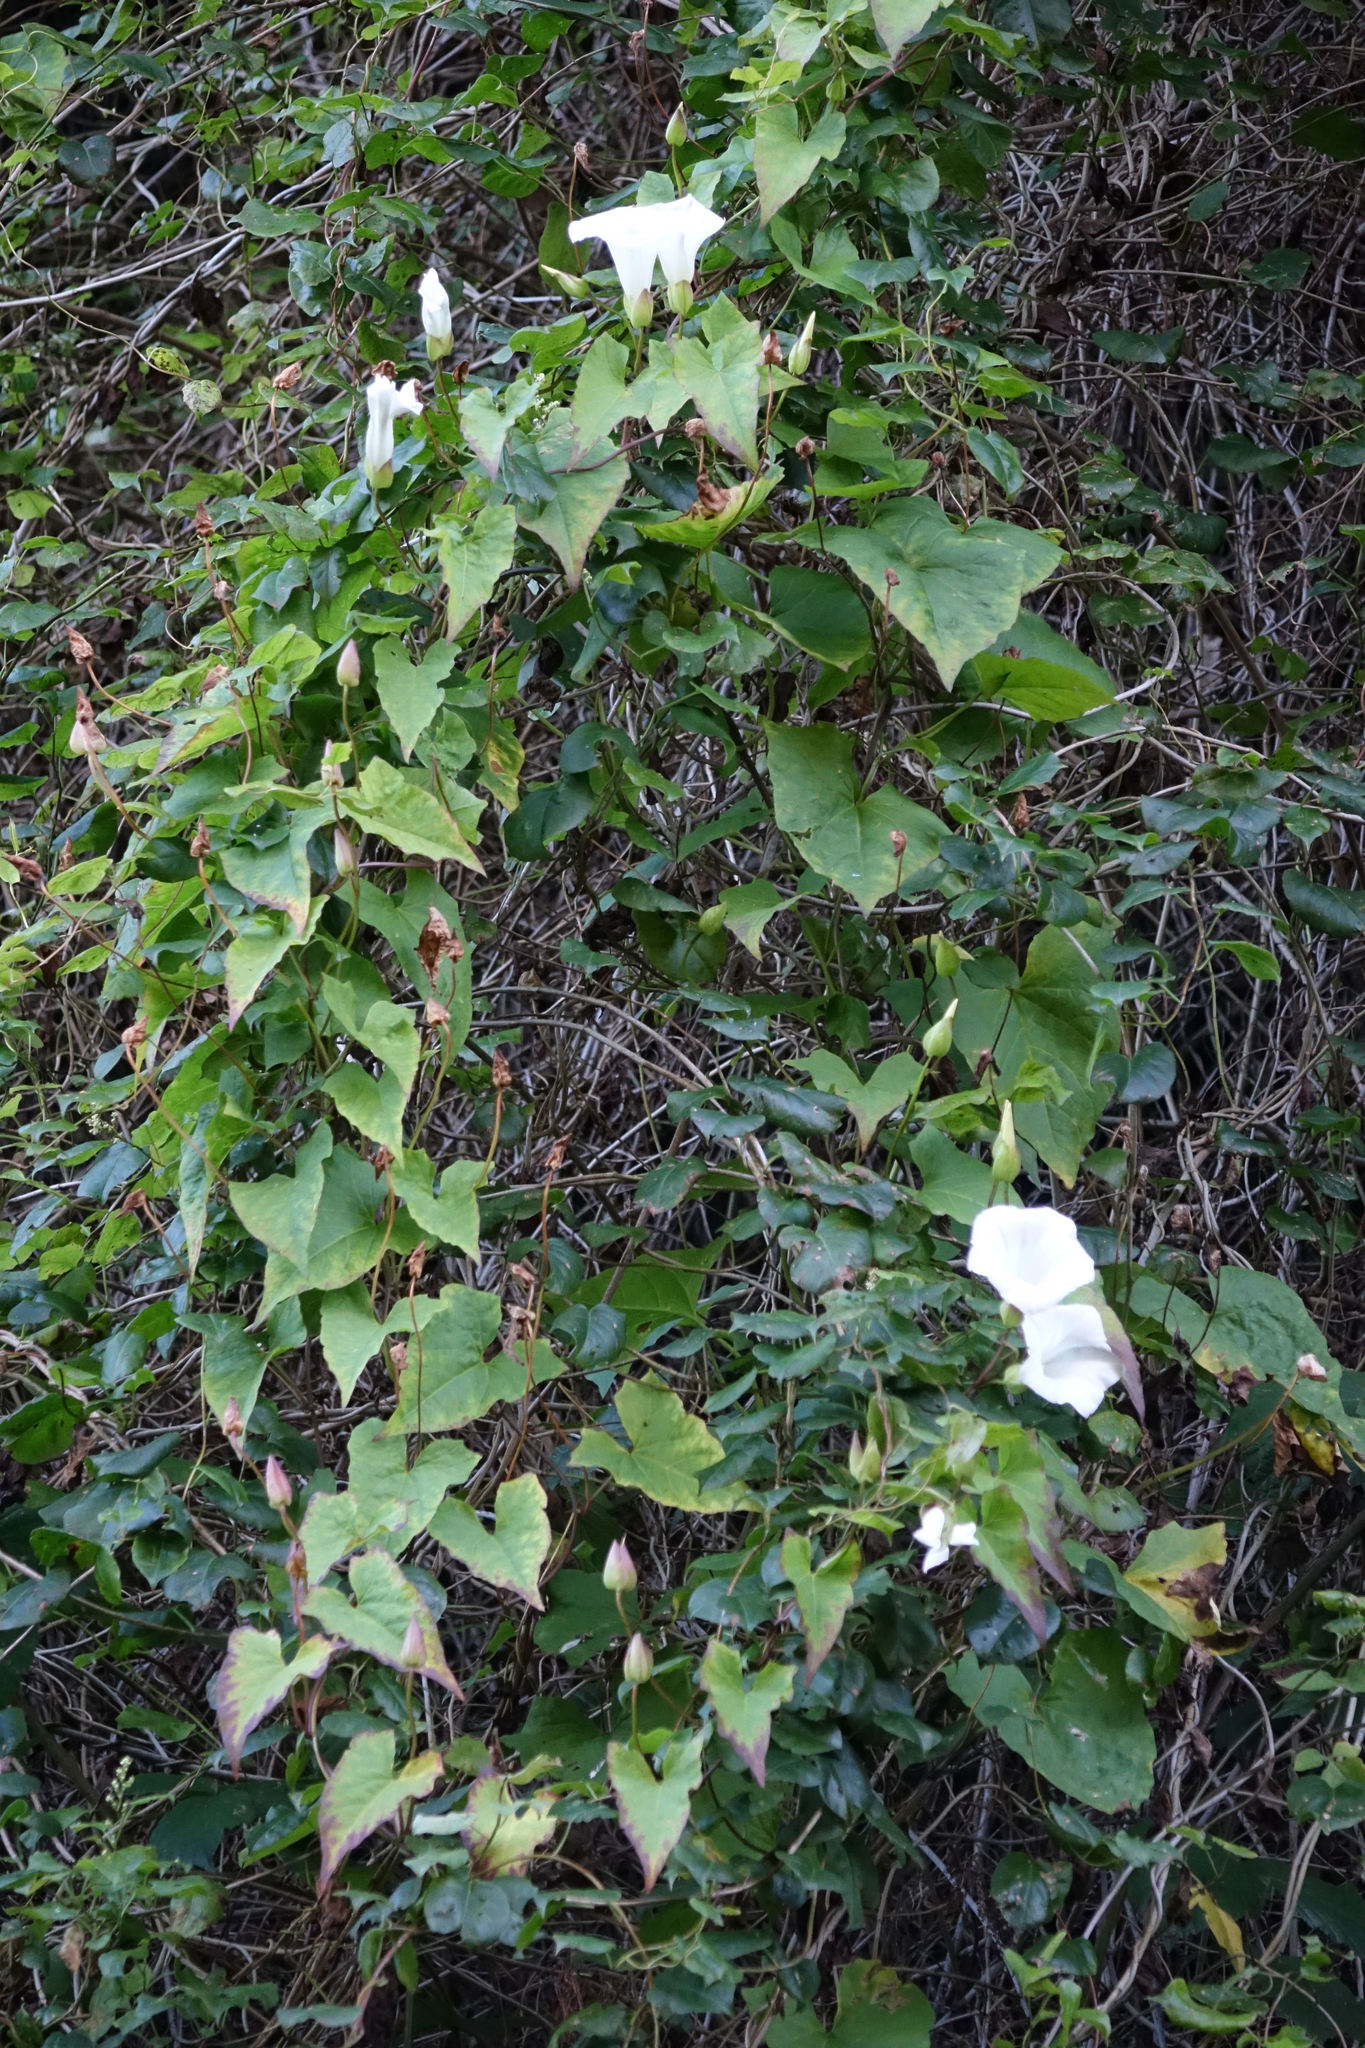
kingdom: Plantae
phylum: Tracheophyta
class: Magnoliopsida
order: Solanales
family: Convolvulaceae
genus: Calystegia
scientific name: Calystegia silvatica
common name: Large bindweed
